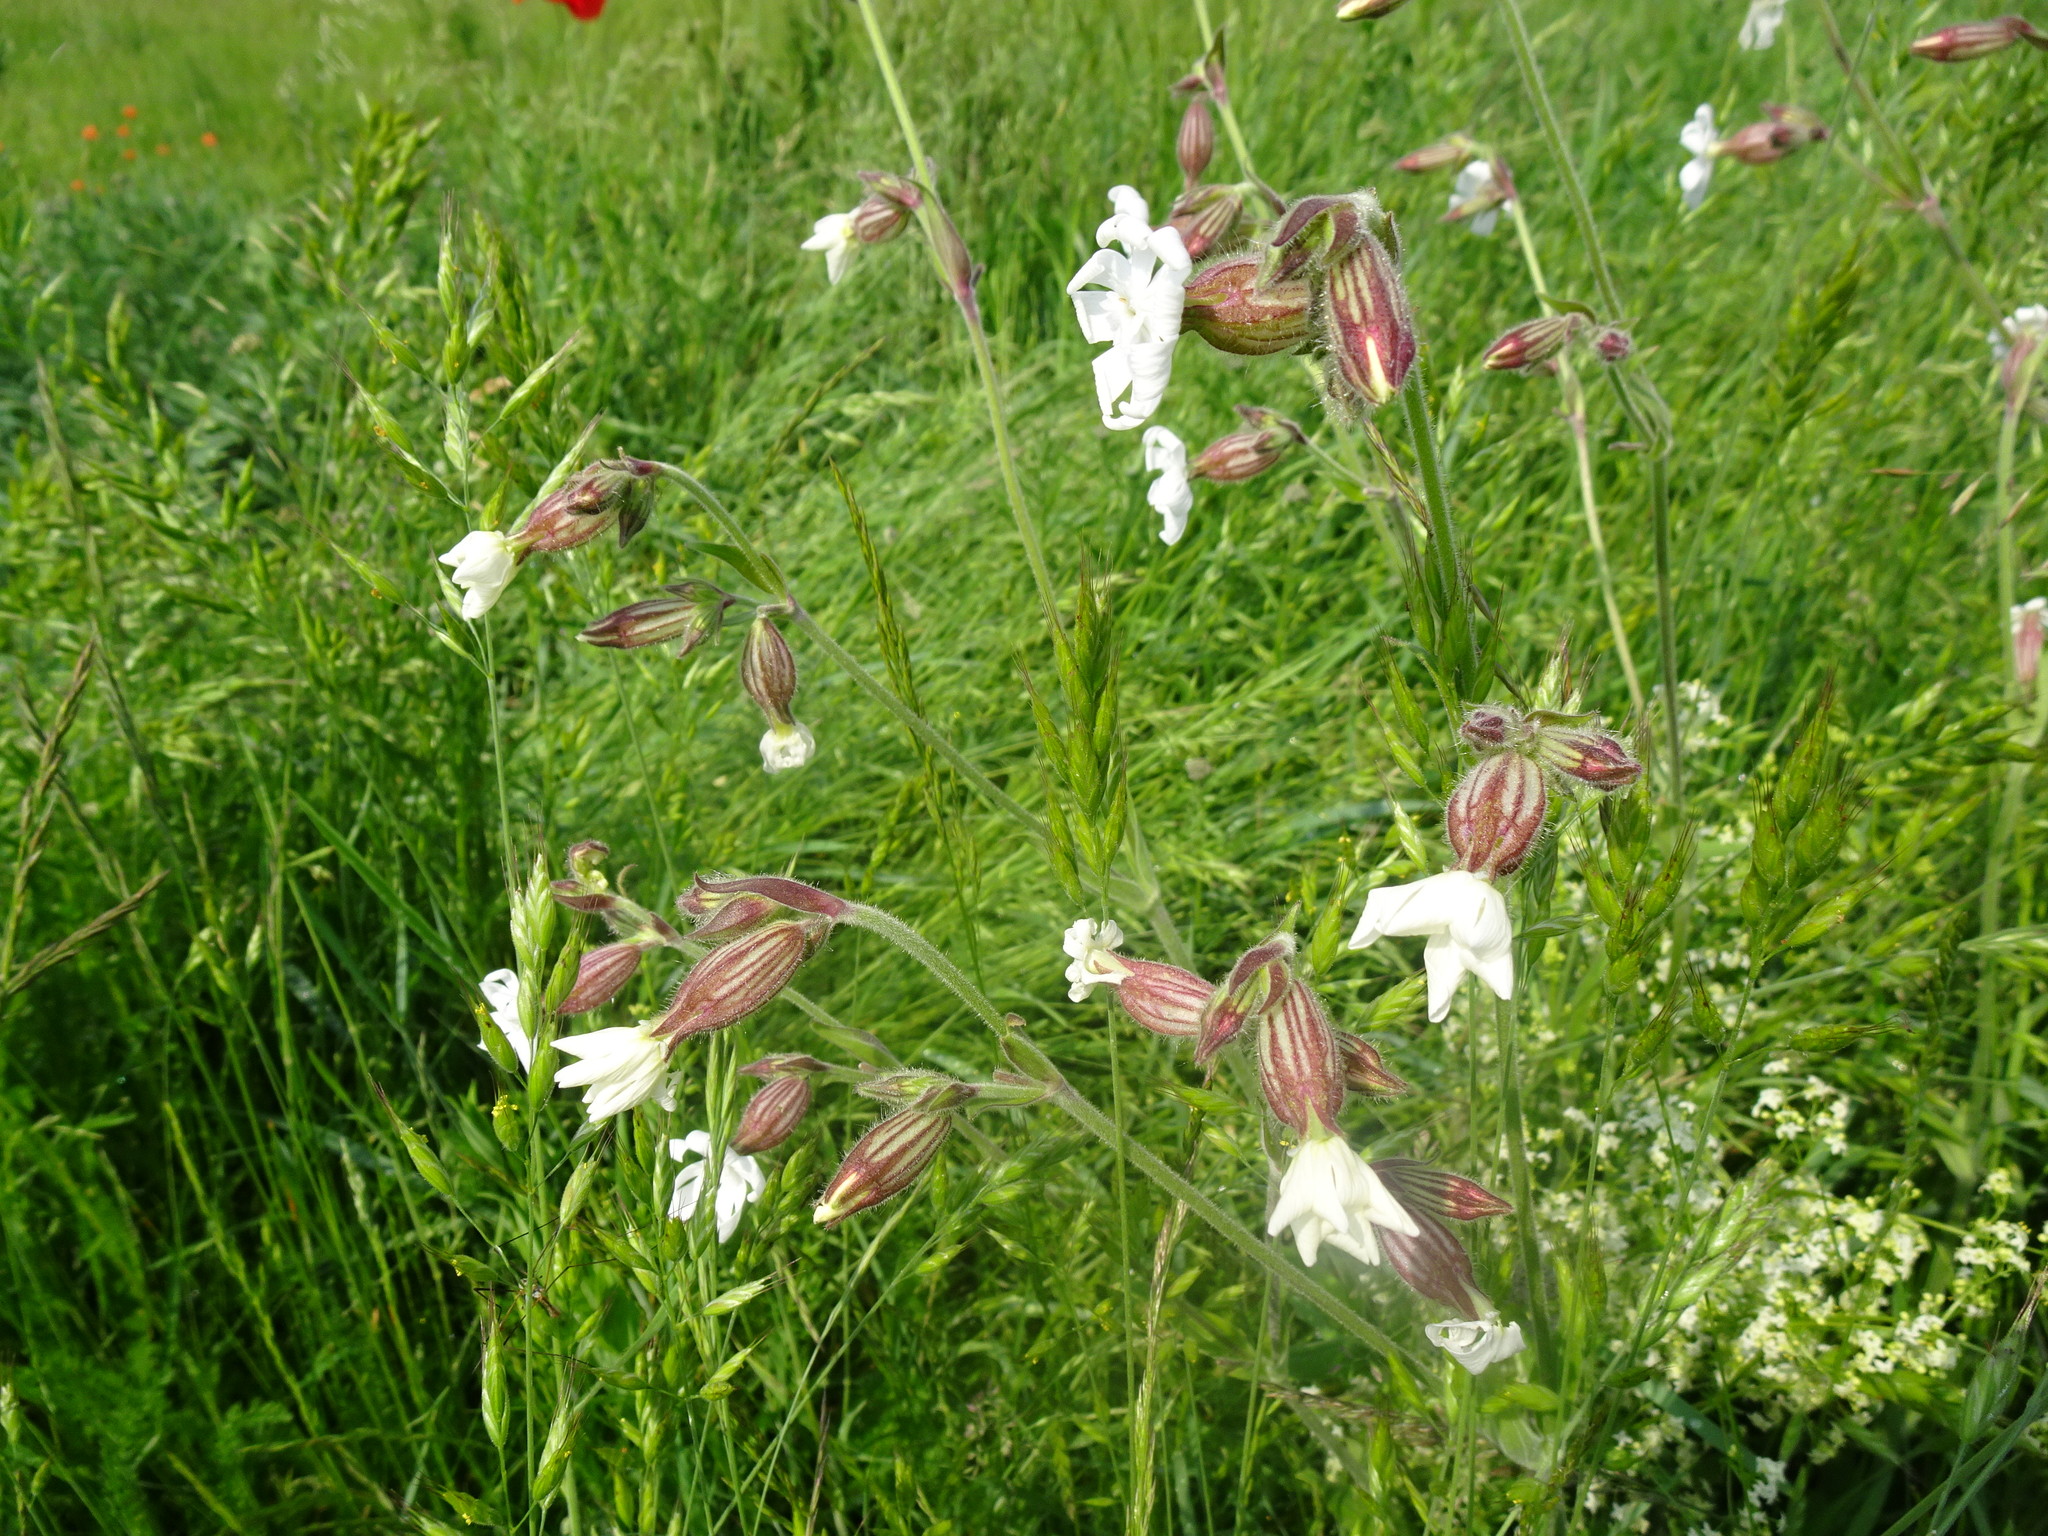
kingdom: Plantae
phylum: Tracheophyta
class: Magnoliopsida
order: Caryophyllales
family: Caryophyllaceae
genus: Silene
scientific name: Silene latifolia
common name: White campion
